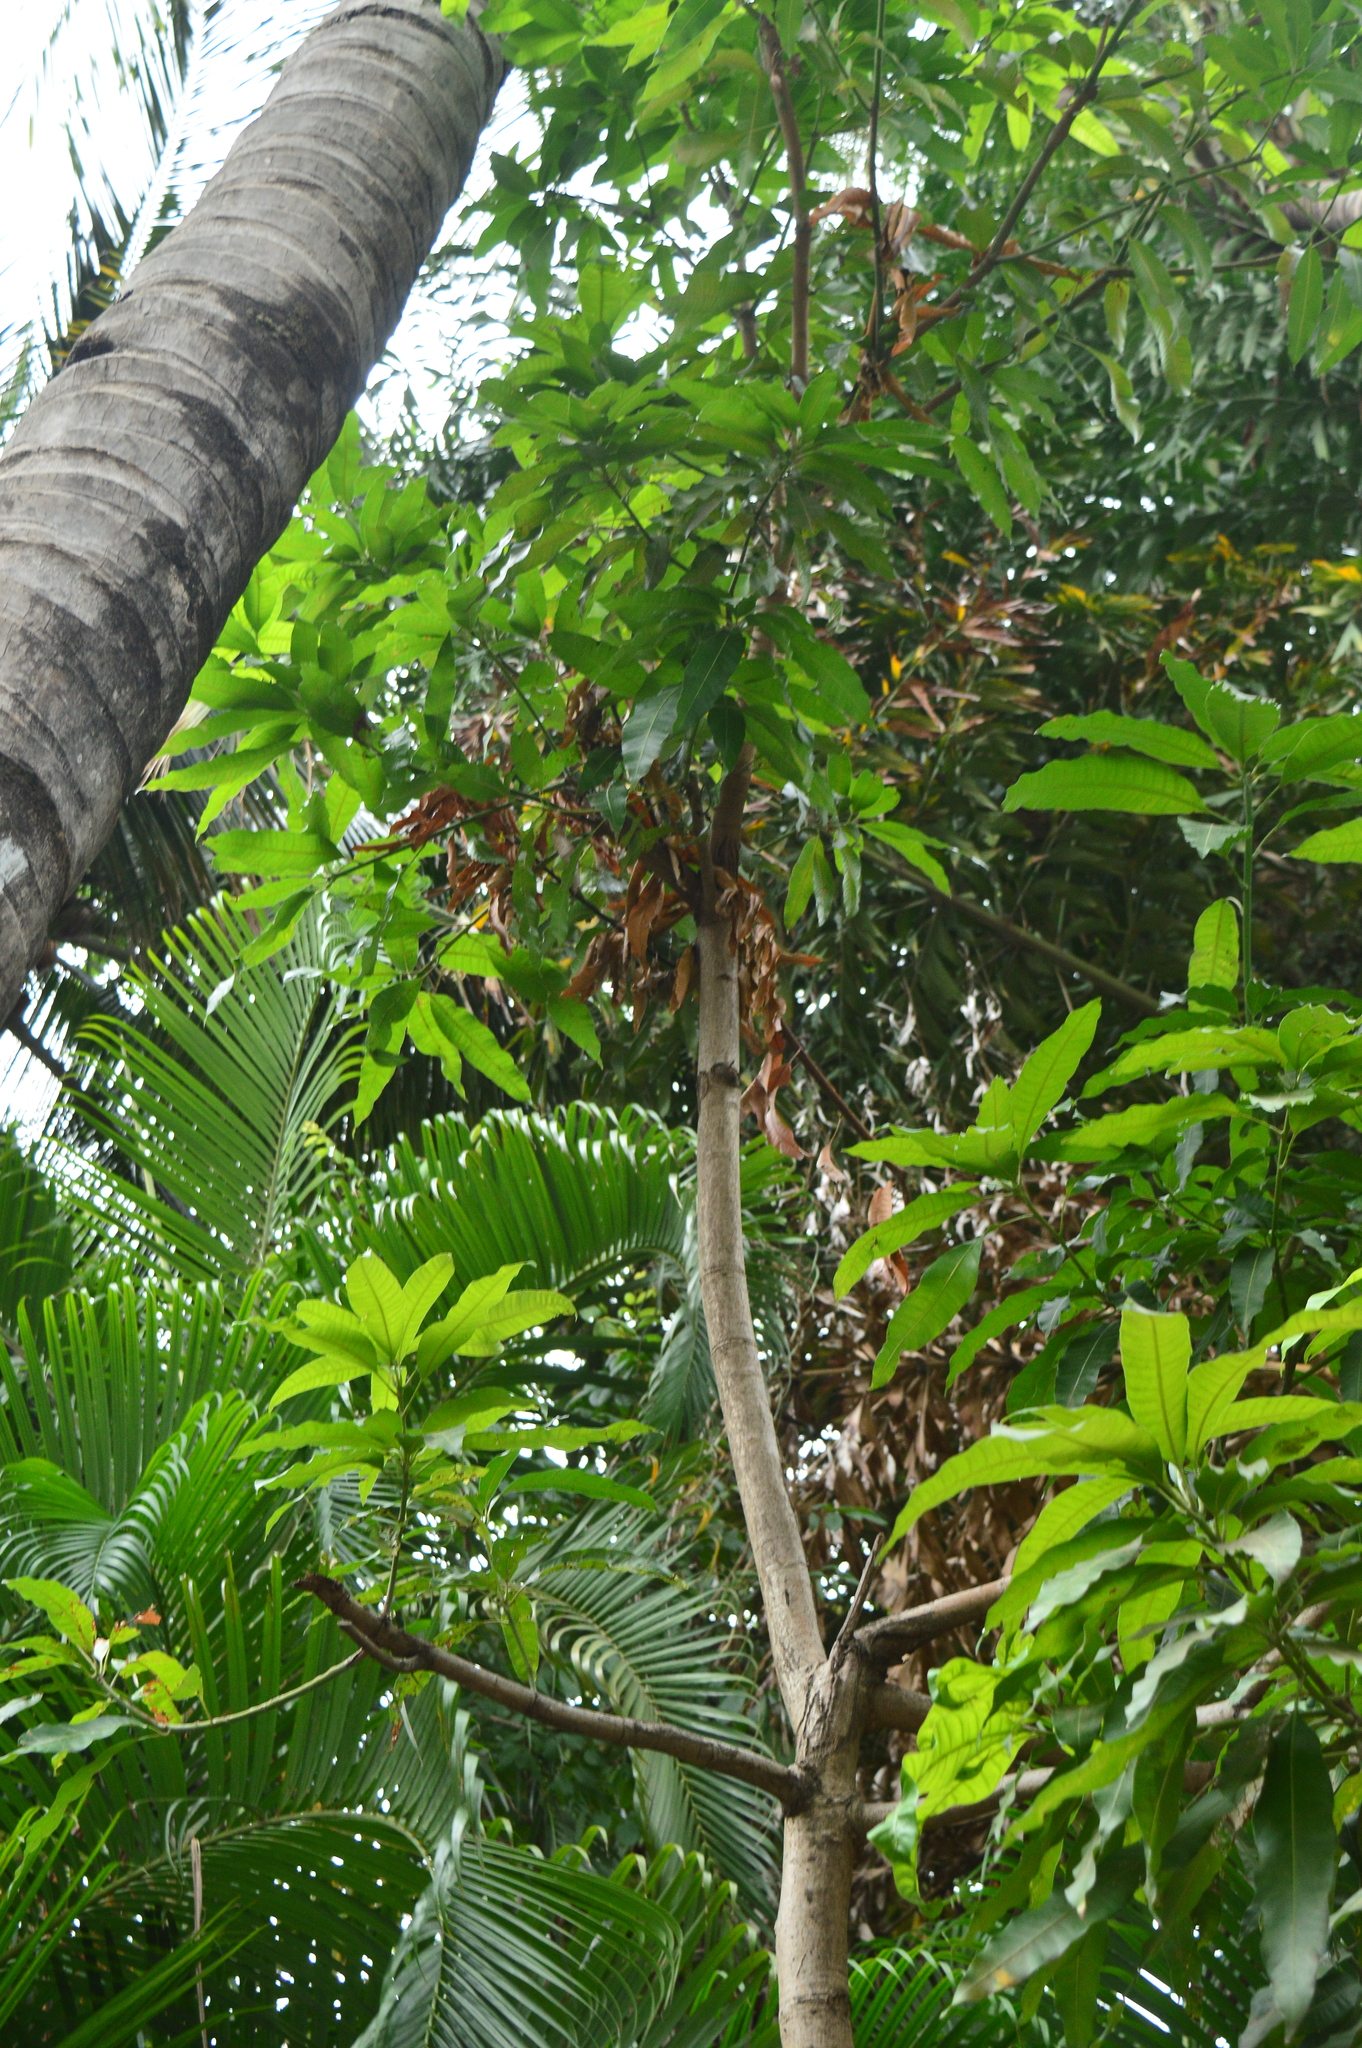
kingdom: Plantae
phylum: Tracheophyta
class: Magnoliopsida
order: Sapindales
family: Anacardiaceae
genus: Mangifera
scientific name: Mangifera indica
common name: Mango
